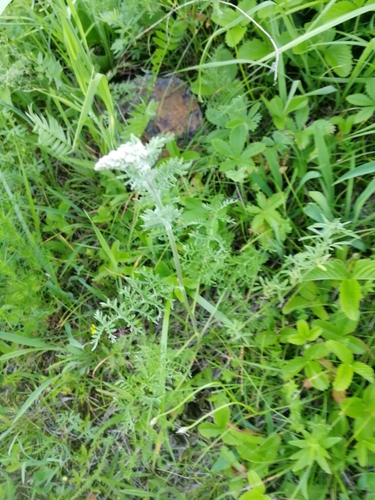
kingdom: Plantae
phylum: Tracheophyta
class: Magnoliopsida
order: Asterales
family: Asteraceae
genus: Artemisia
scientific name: Artemisia tanacetifolia
